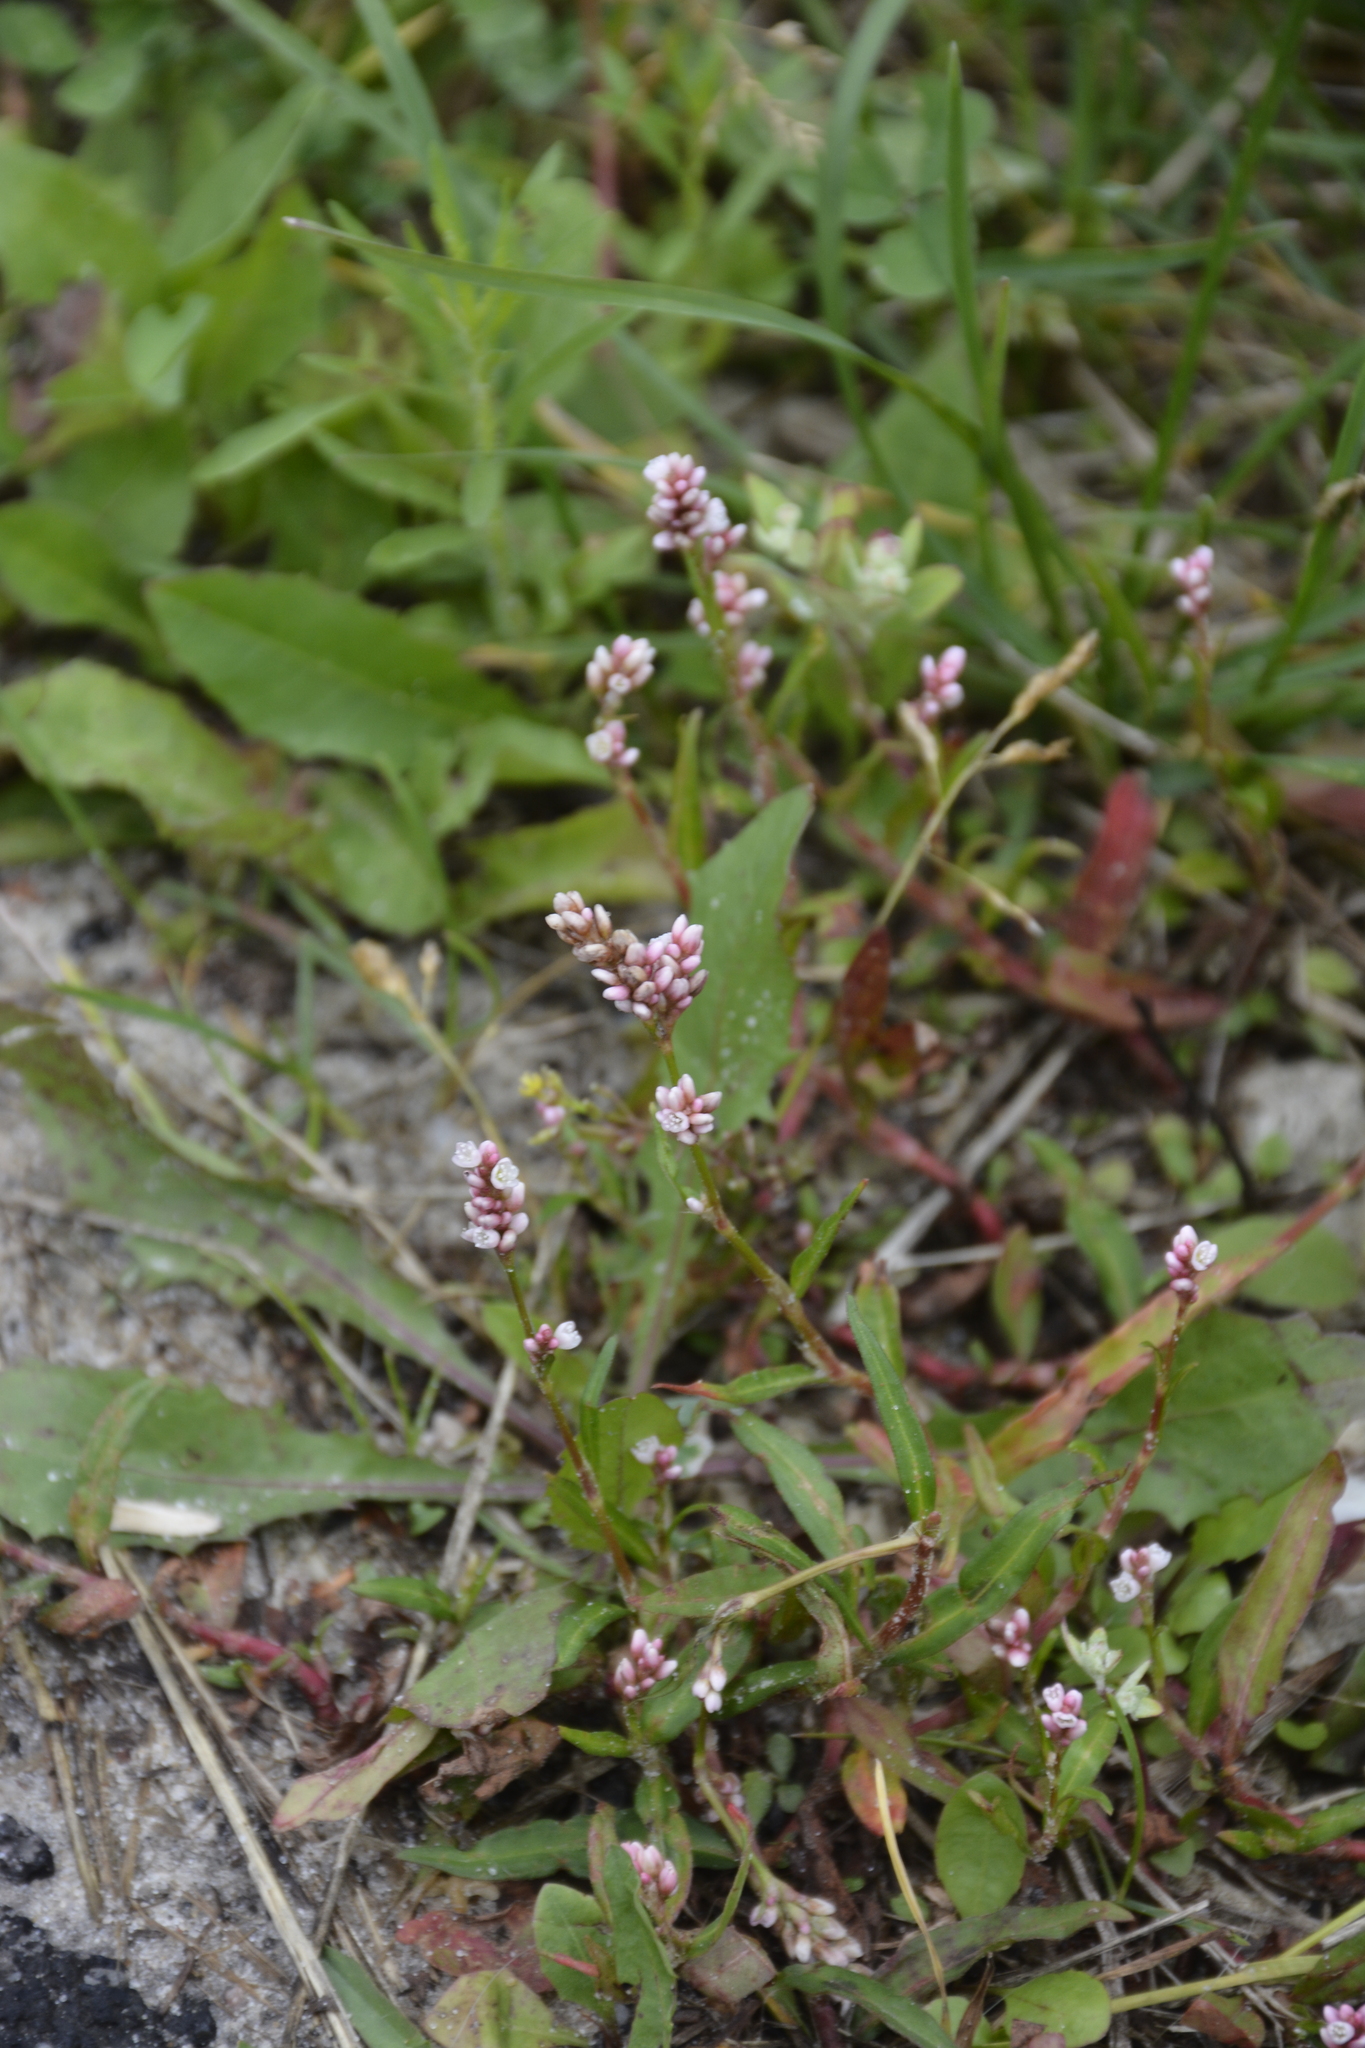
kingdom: Plantae
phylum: Tracheophyta
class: Magnoliopsida
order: Caryophyllales
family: Polygonaceae
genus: Persicaria
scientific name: Persicaria maculosa
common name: Redshank
